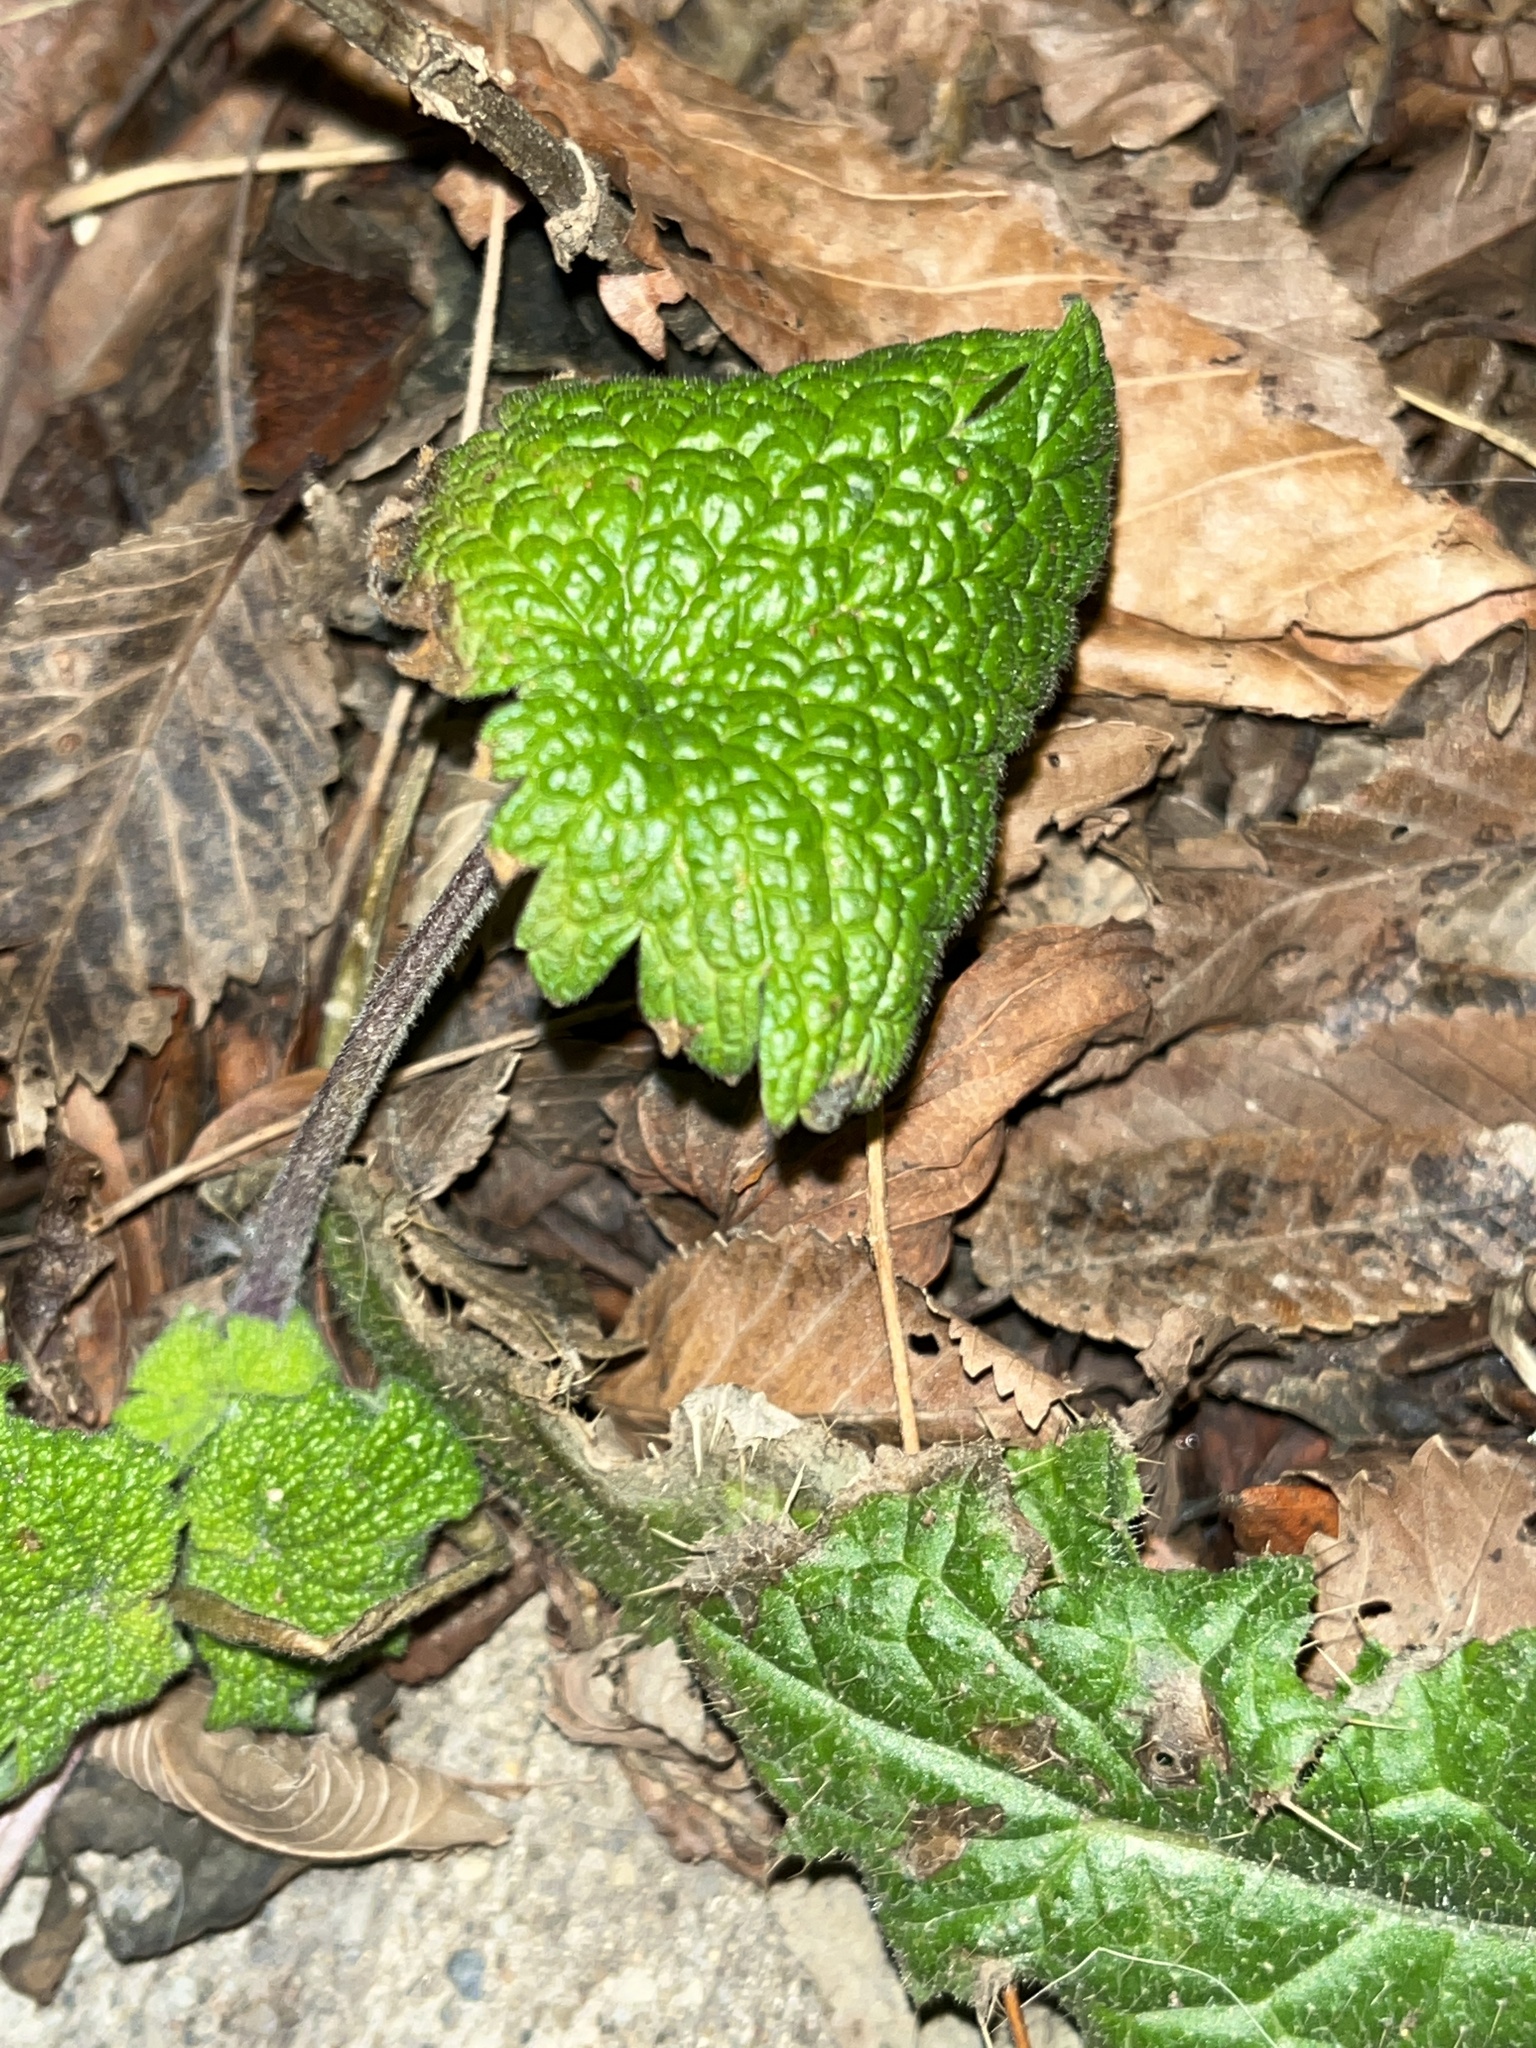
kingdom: Plantae
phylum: Tracheophyta
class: Magnoliopsida
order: Lamiales
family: Lamiaceae
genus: Leonurus
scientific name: Leonurus cardiaca
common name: Motherwort
